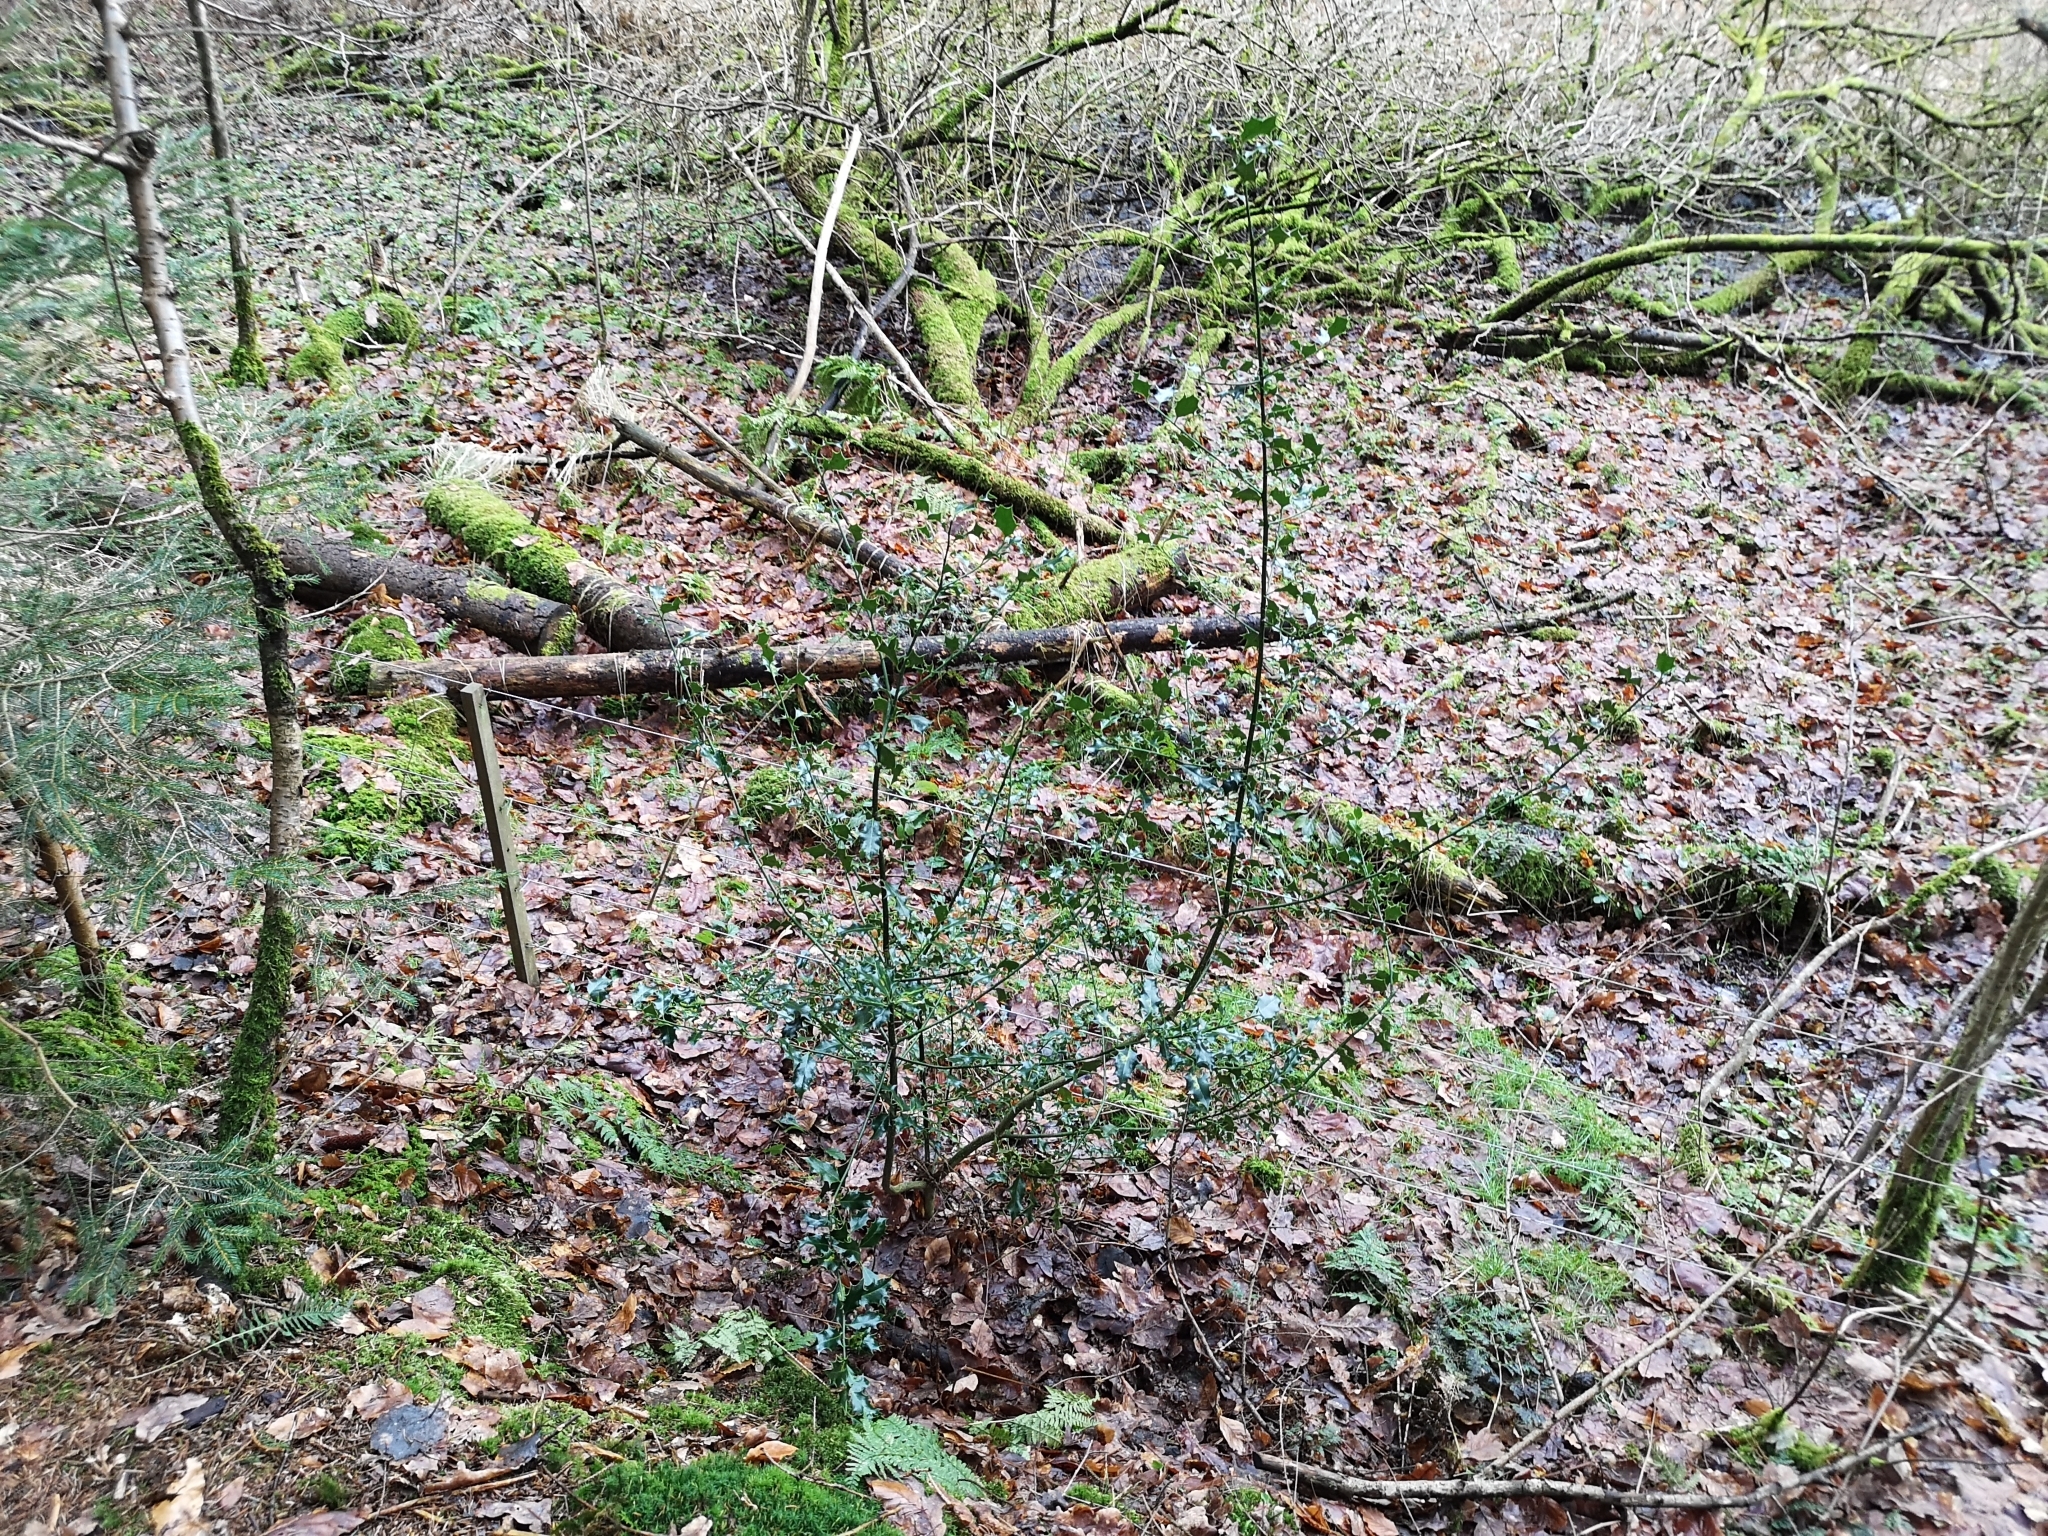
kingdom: Plantae
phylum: Tracheophyta
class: Magnoliopsida
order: Aquifoliales
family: Aquifoliaceae
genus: Ilex
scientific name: Ilex aquifolium
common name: English holly
